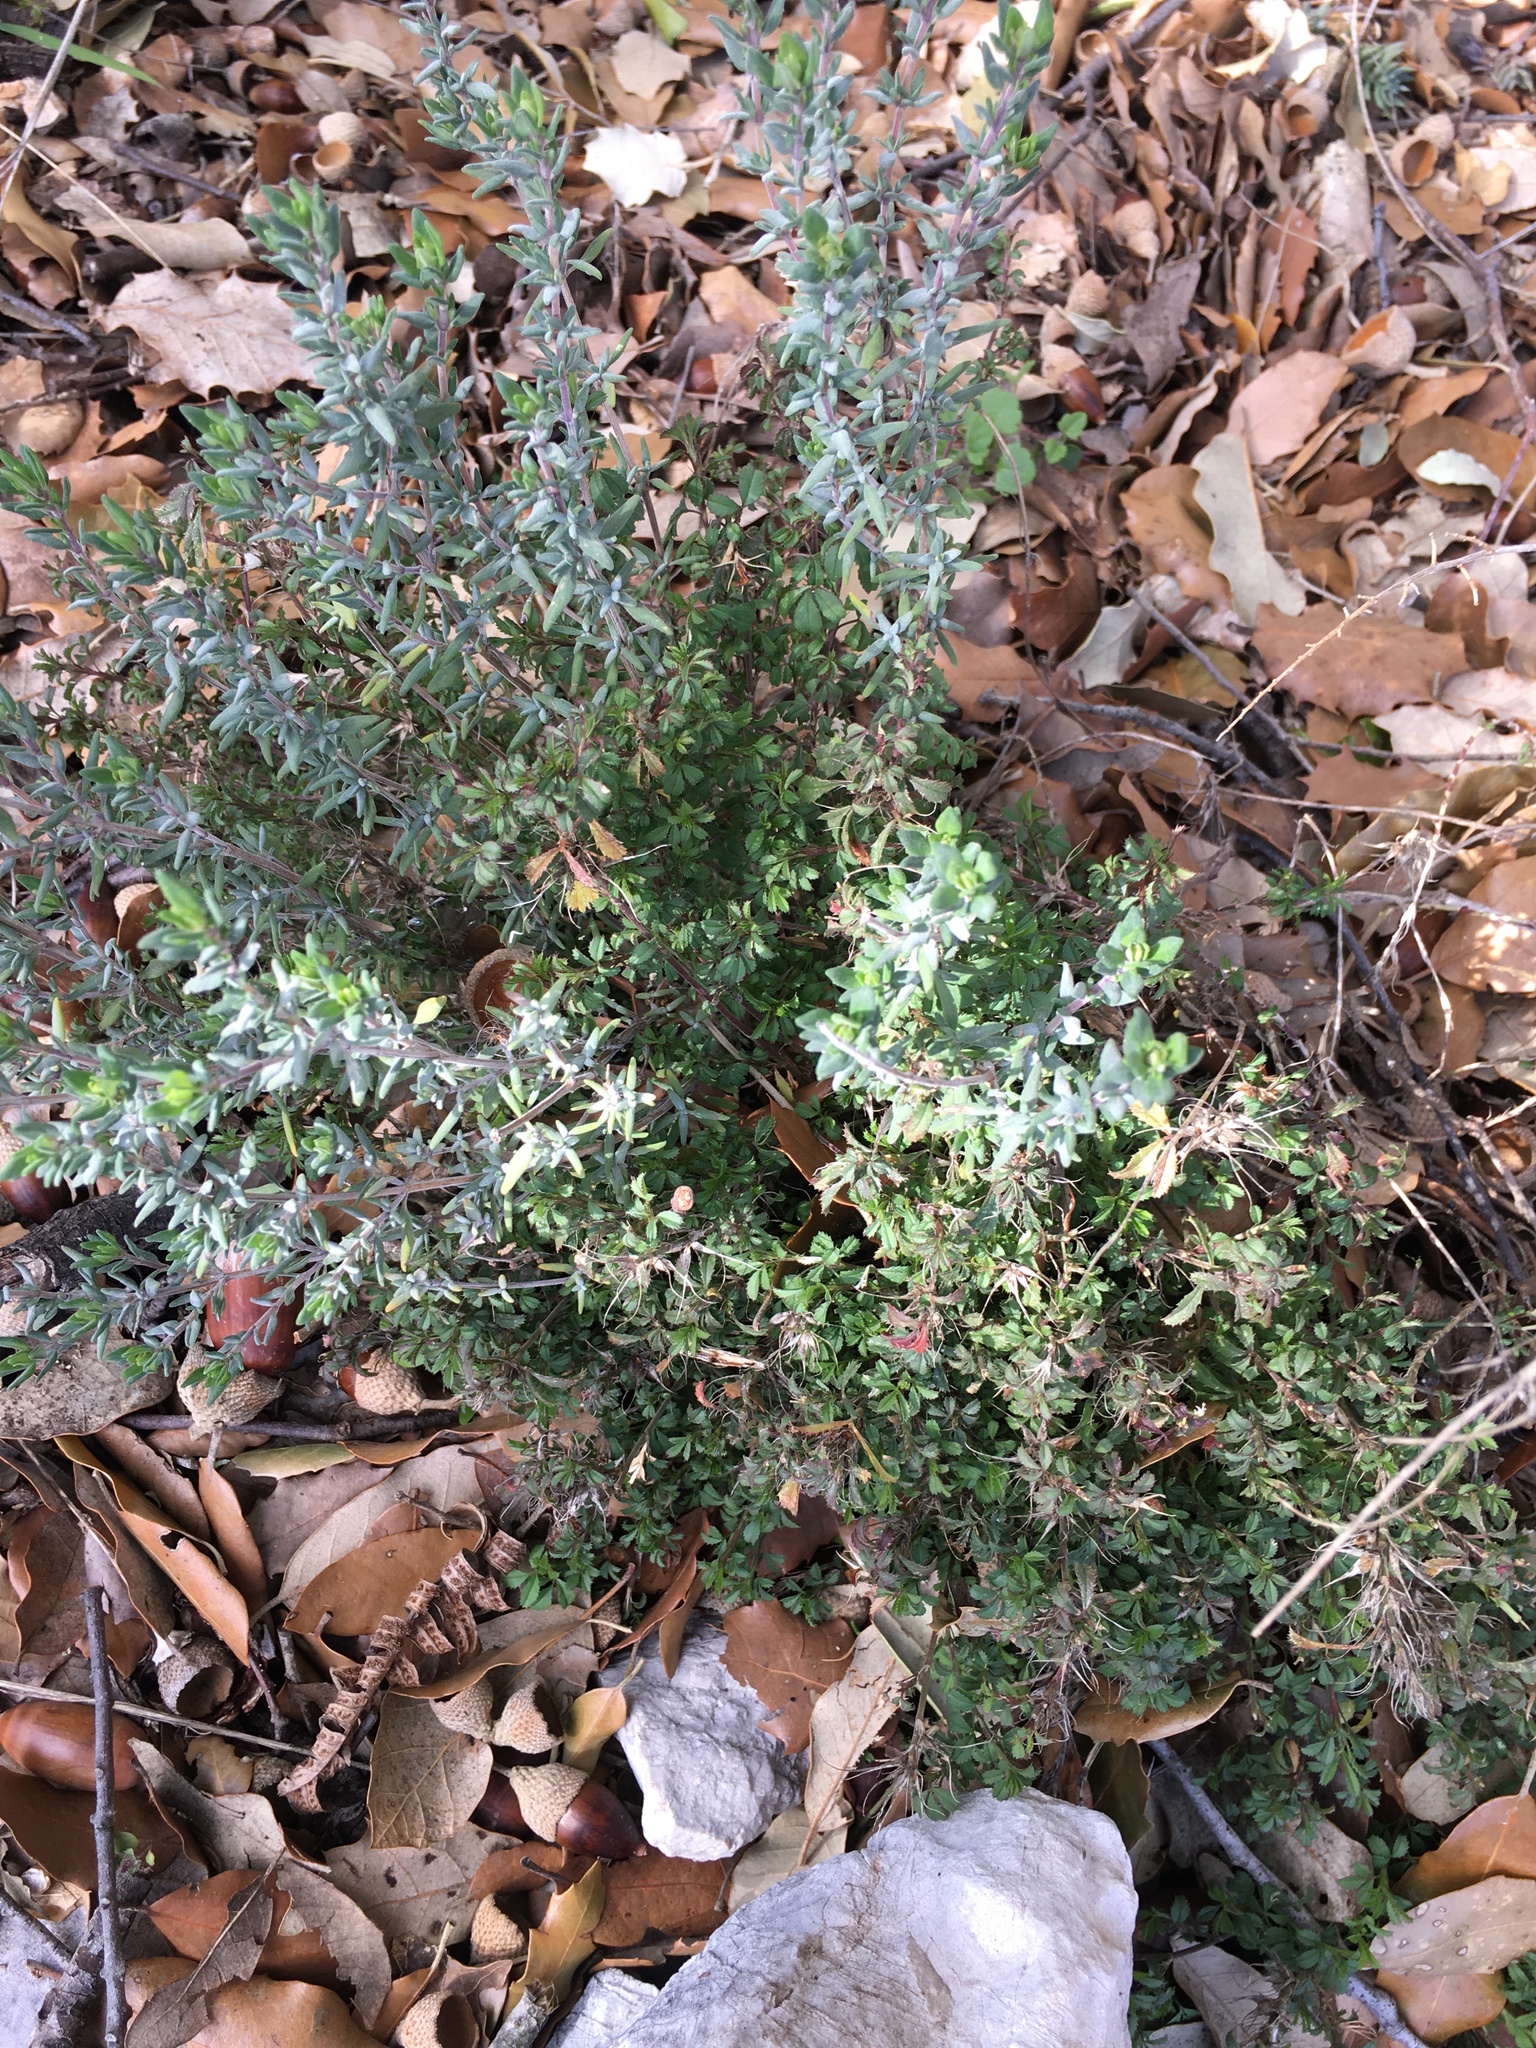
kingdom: Plantae
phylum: Tracheophyta
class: Magnoliopsida
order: Lamiales
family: Lamiaceae
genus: Thymus
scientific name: Thymus vulgaris
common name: Garden thyme
